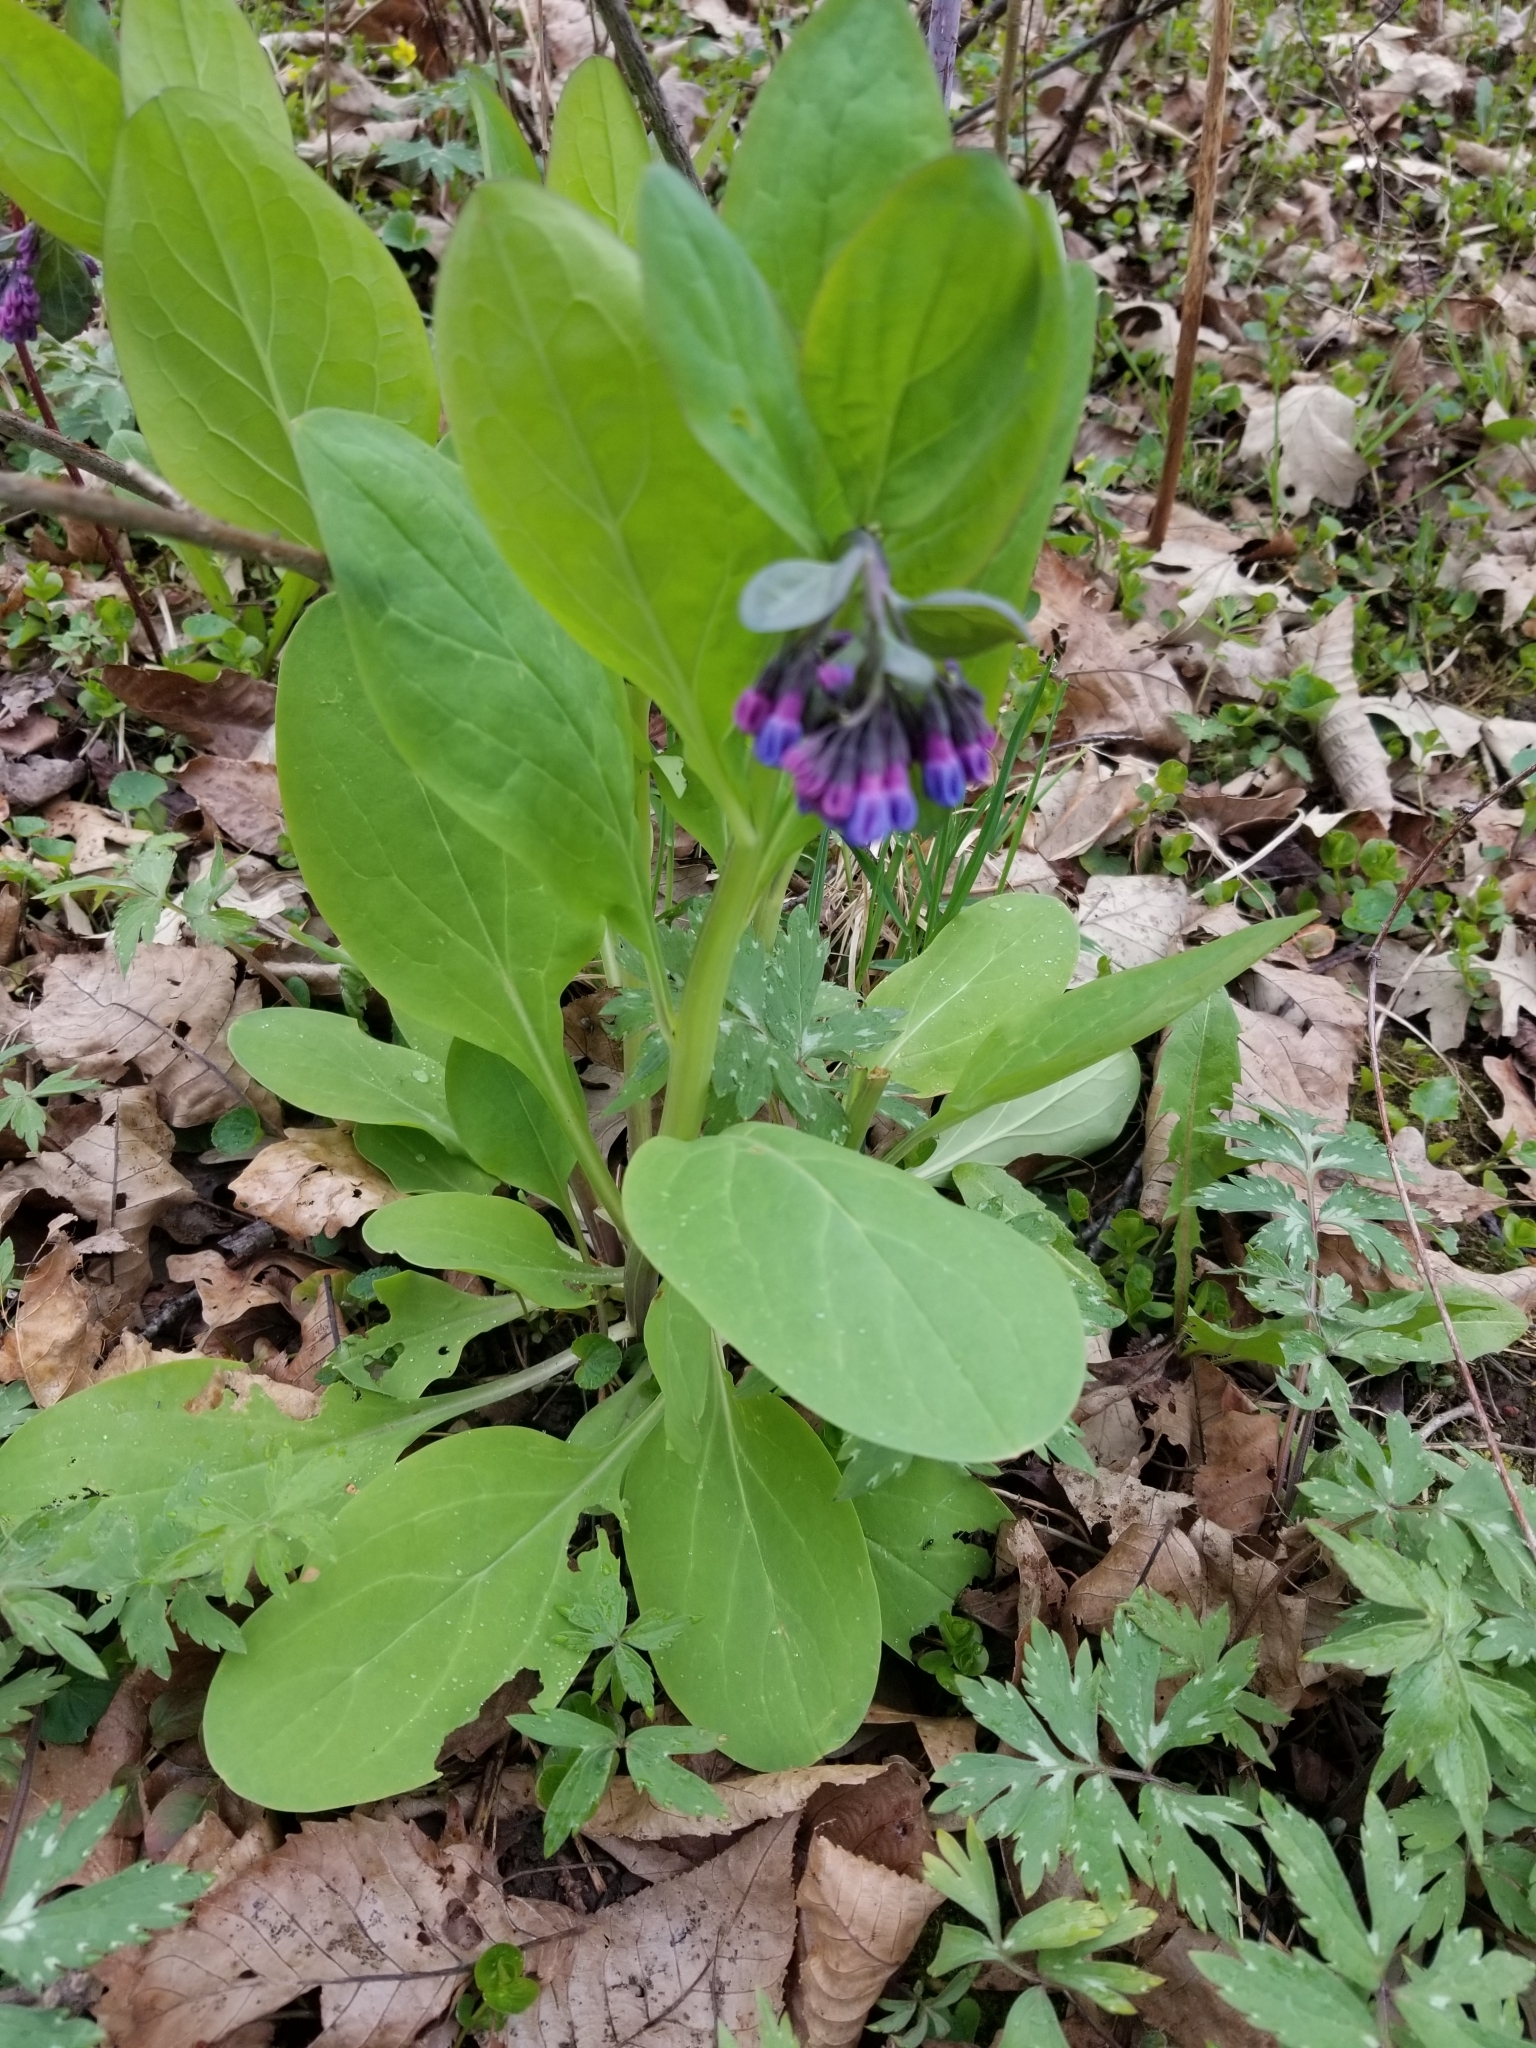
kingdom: Plantae
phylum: Tracheophyta
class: Magnoliopsida
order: Boraginales
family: Boraginaceae
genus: Mertensia
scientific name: Mertensia virginica
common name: Virginia bluebells
